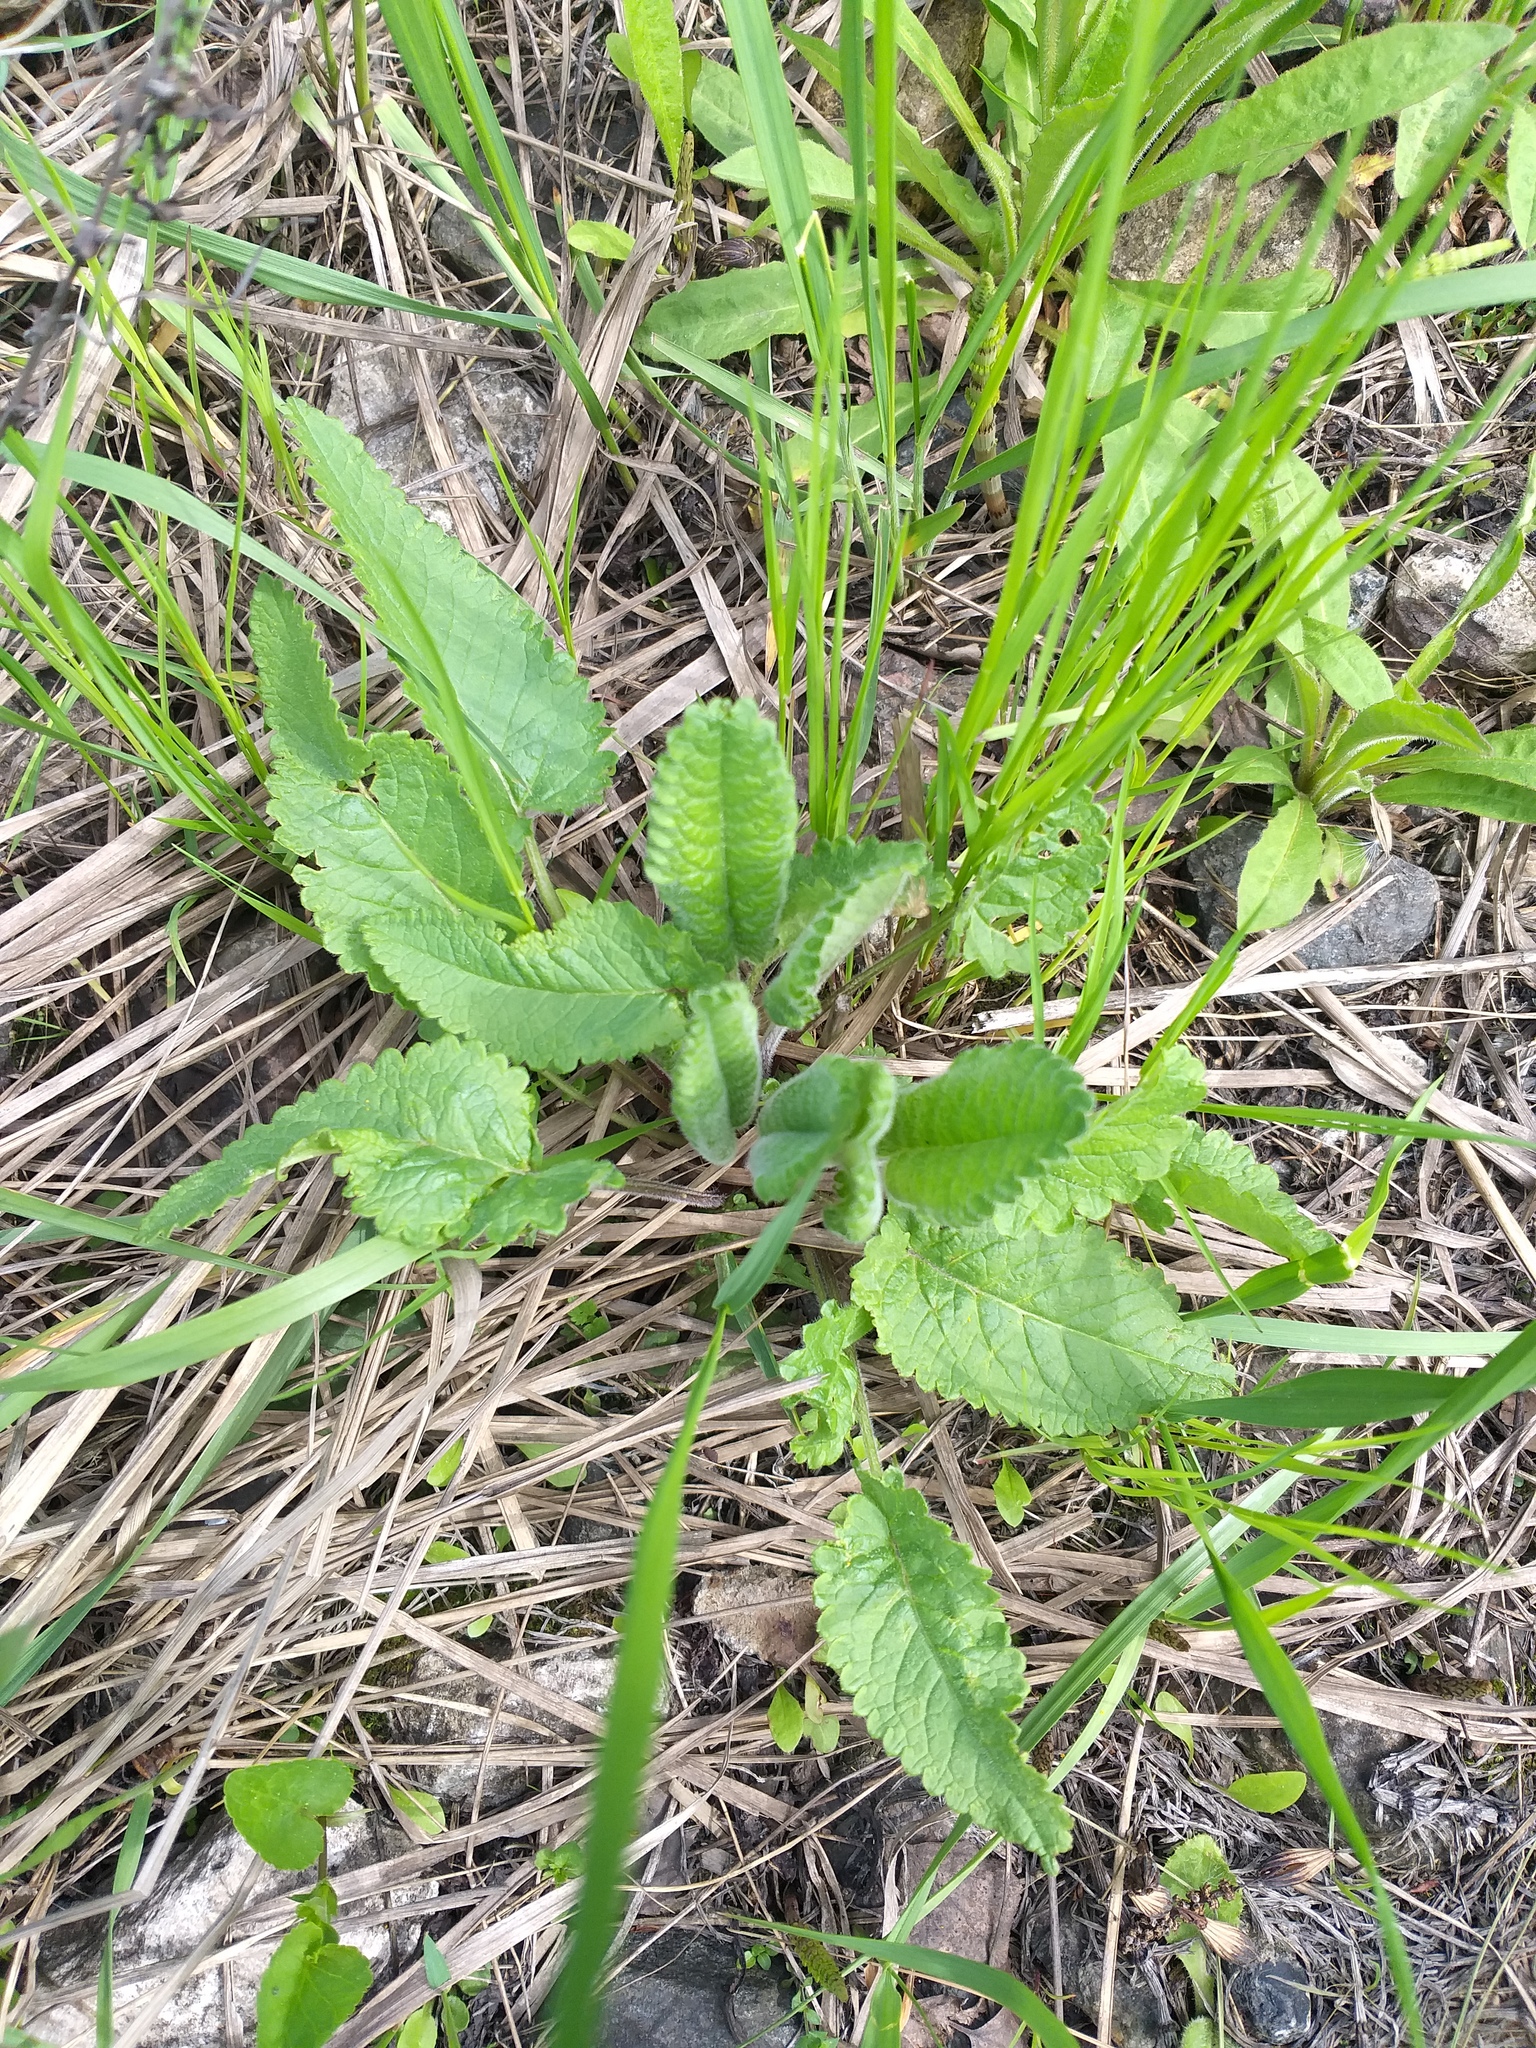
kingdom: Plantae
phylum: Tracheophyta
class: Magnoliopsida
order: Lamiales
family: Lamiaceae
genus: Betonica
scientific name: Betonica officinalis
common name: Bishop's-wort
